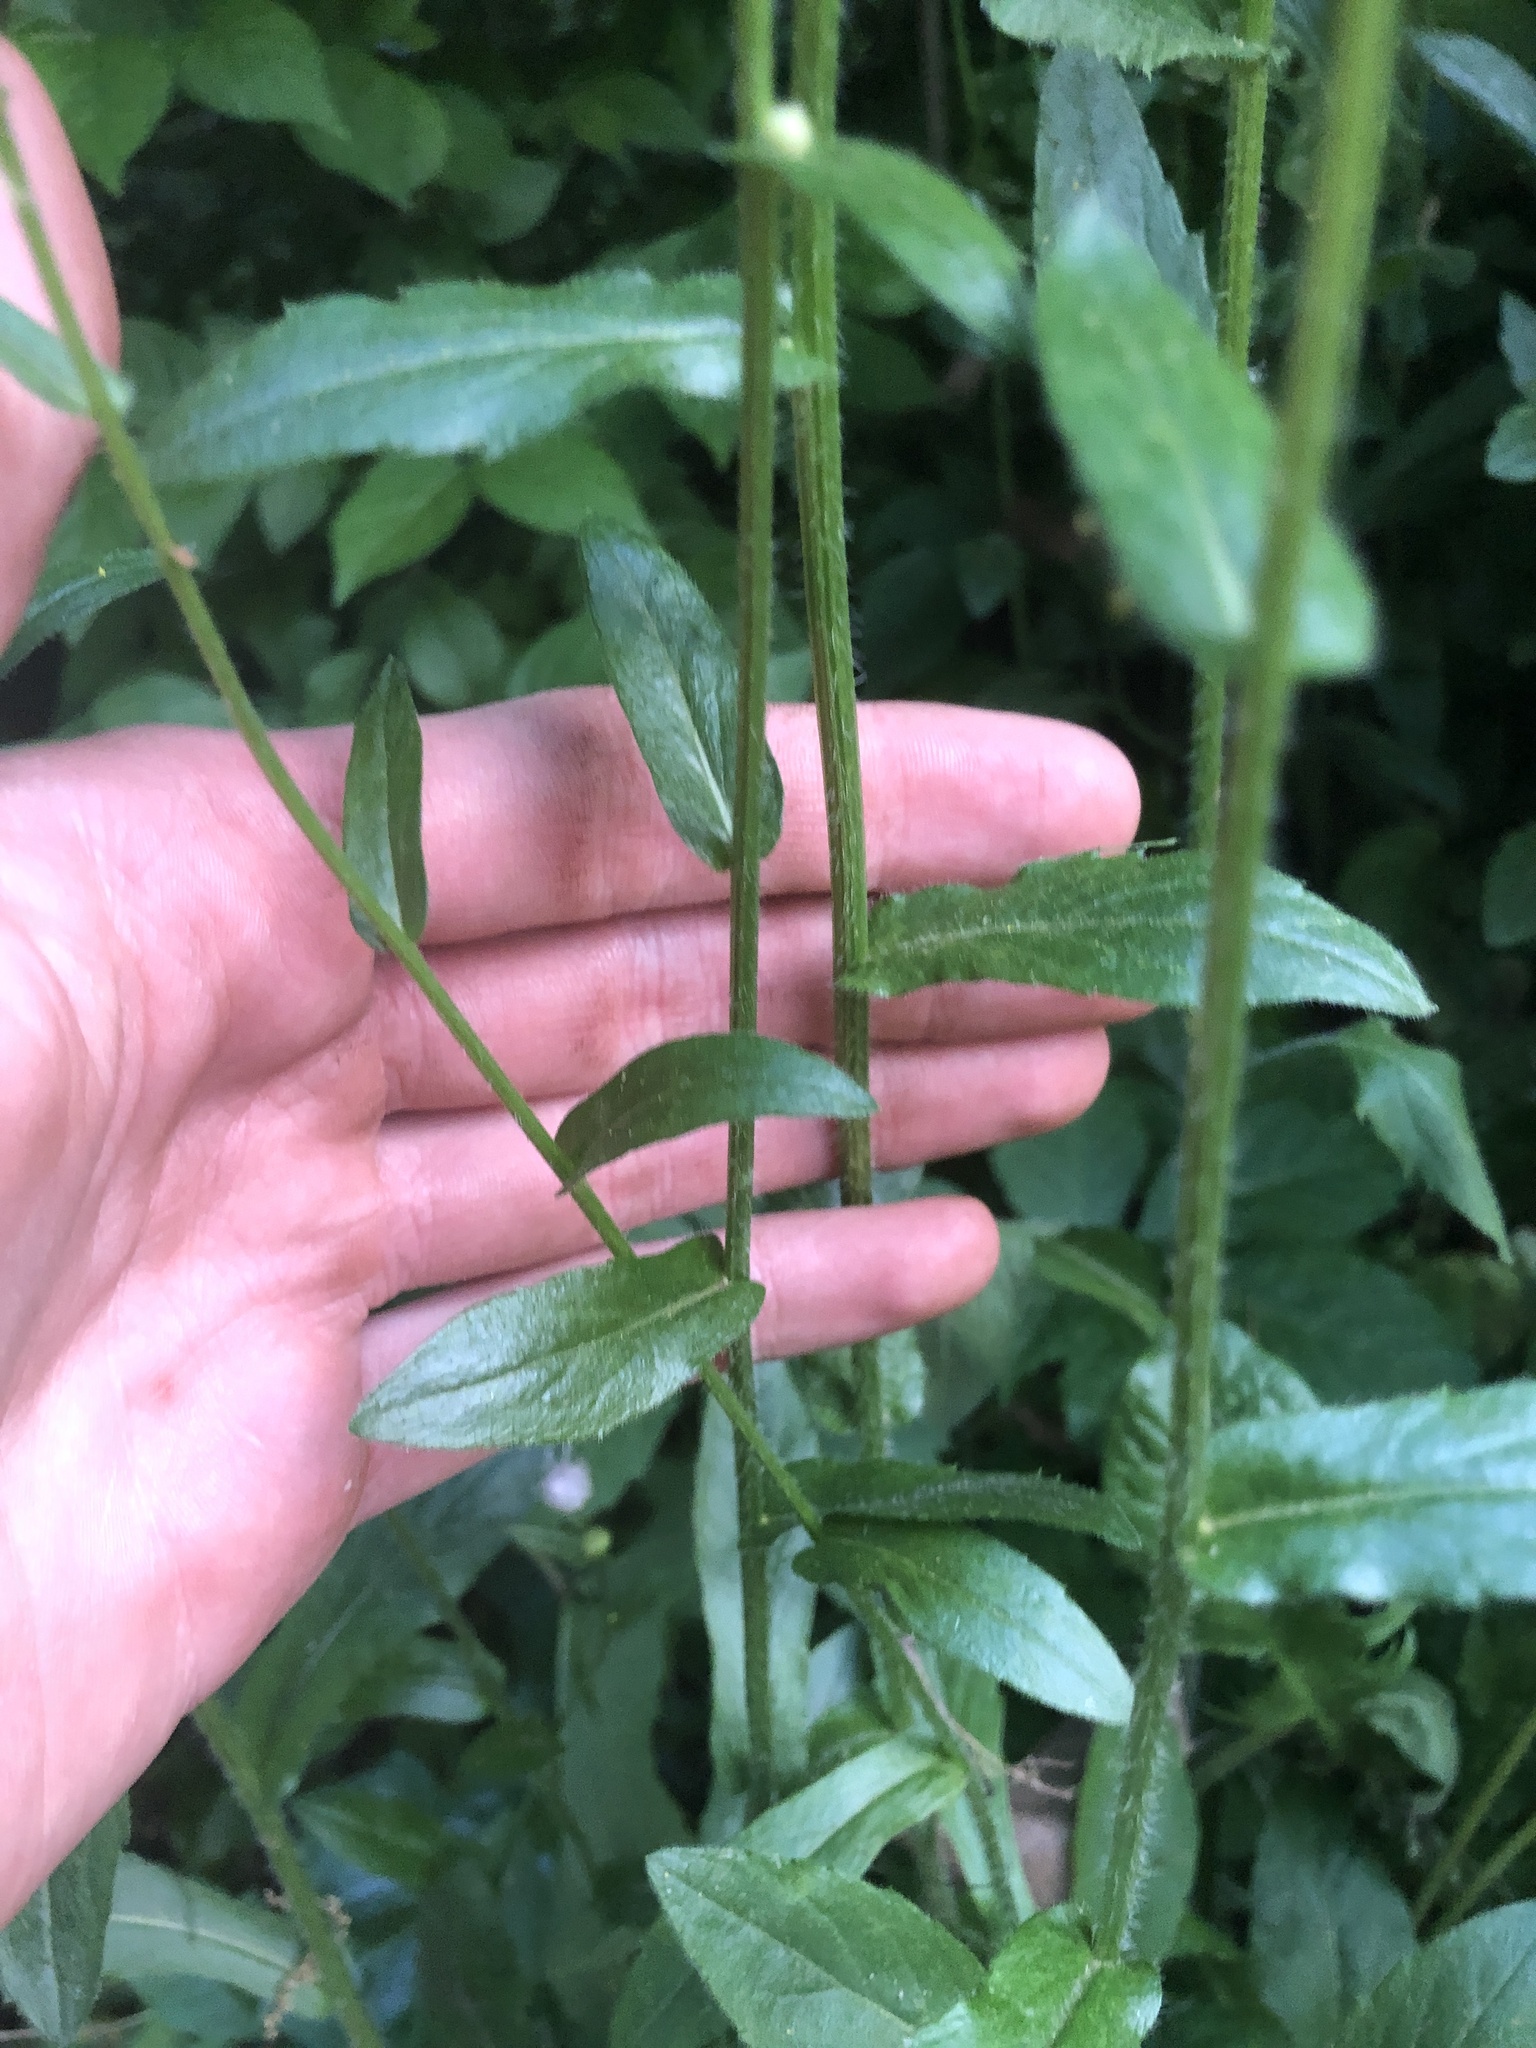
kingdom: Plantae
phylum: Tracheophyta
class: Magnoliopsida
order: Asterales
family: Asteraceae
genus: Erigeron
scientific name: Erigeron philadelphicus
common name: Robin's-plantain
